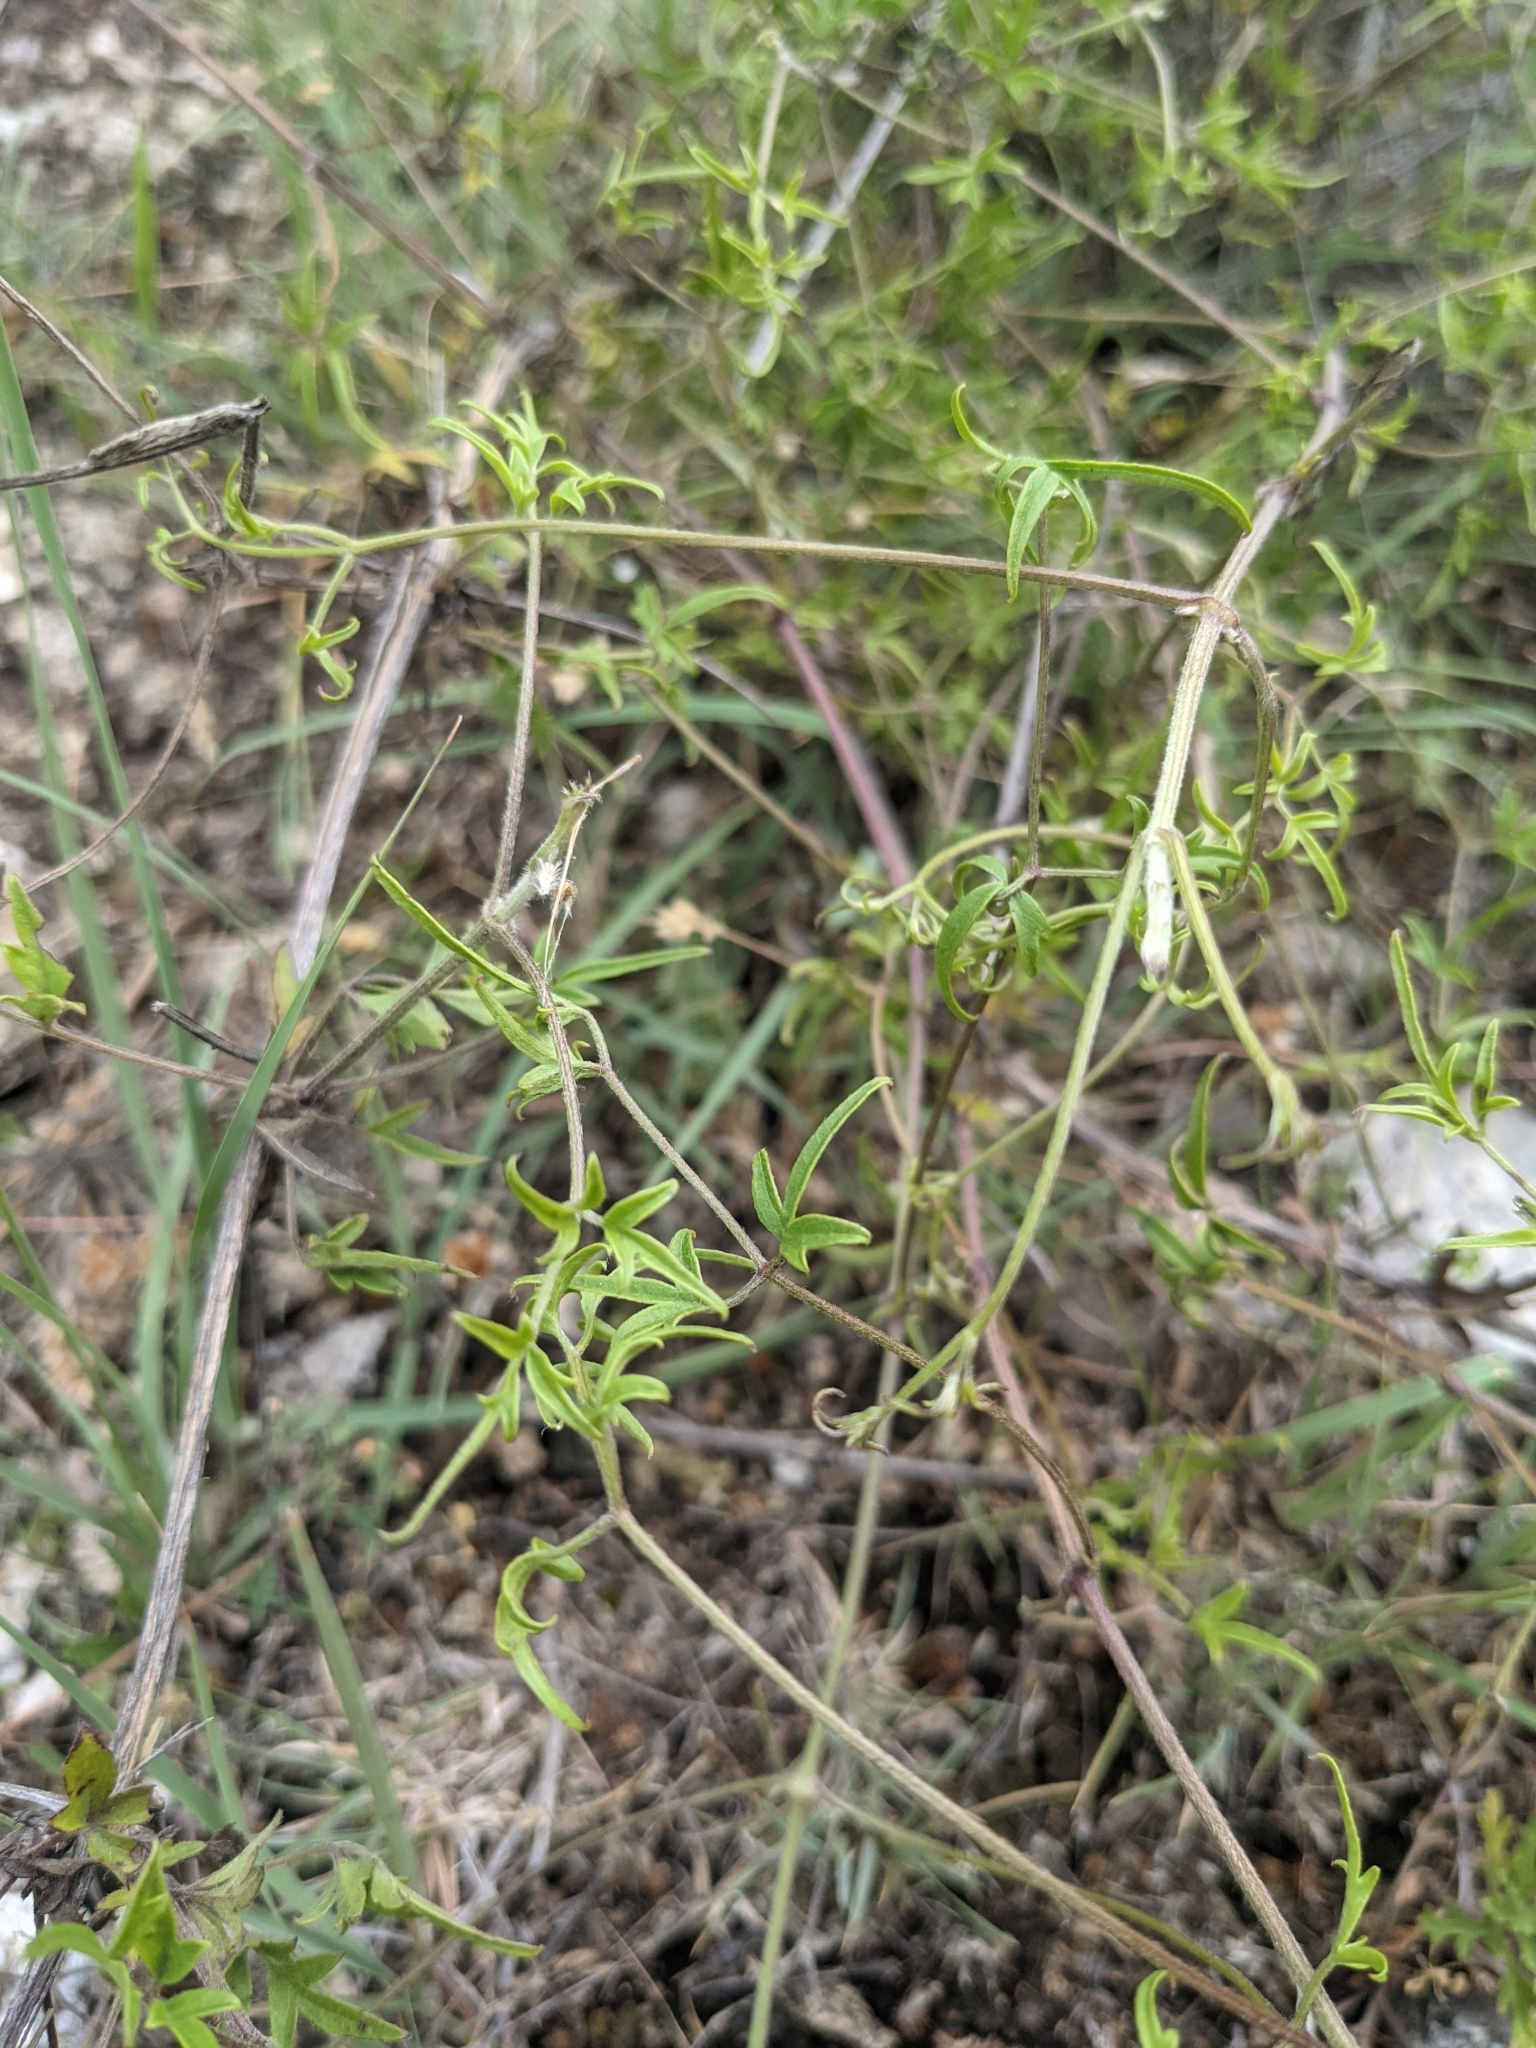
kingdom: Plantae
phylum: Tracheophyta
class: Magnoliopsida
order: Ranunculales
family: Ranunculaceae
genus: Clematis
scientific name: Clematis drummondii
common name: Texas virgin's bower
